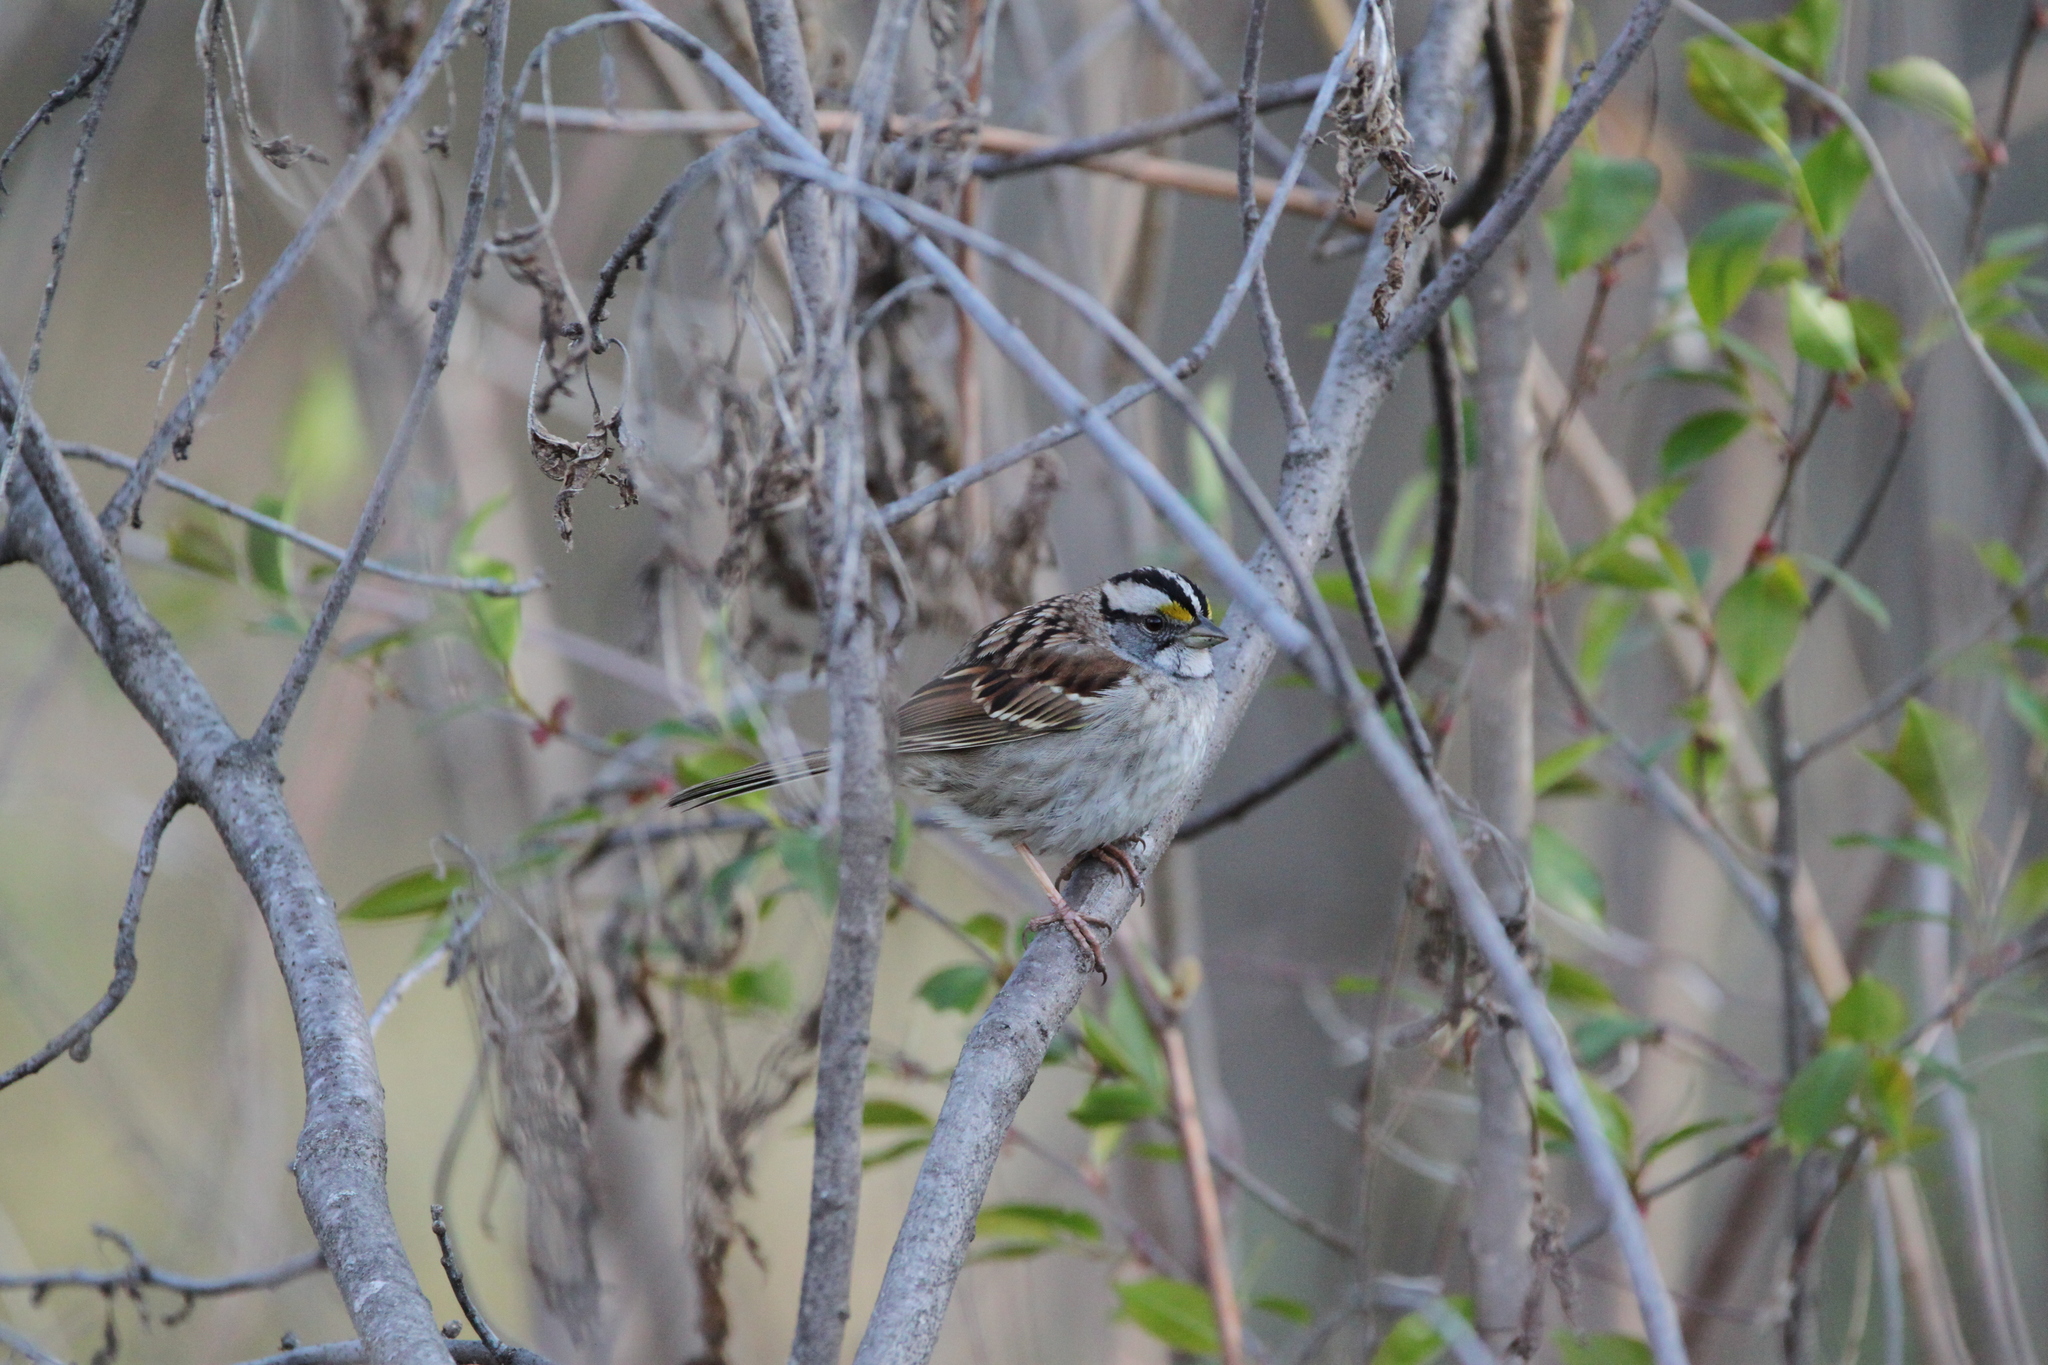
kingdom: Animalia
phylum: Chordata
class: Aves
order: Passeriformes
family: Passerellidae
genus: Zonotrichia
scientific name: Zonotrichia albicollis
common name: White-throated sparrow
